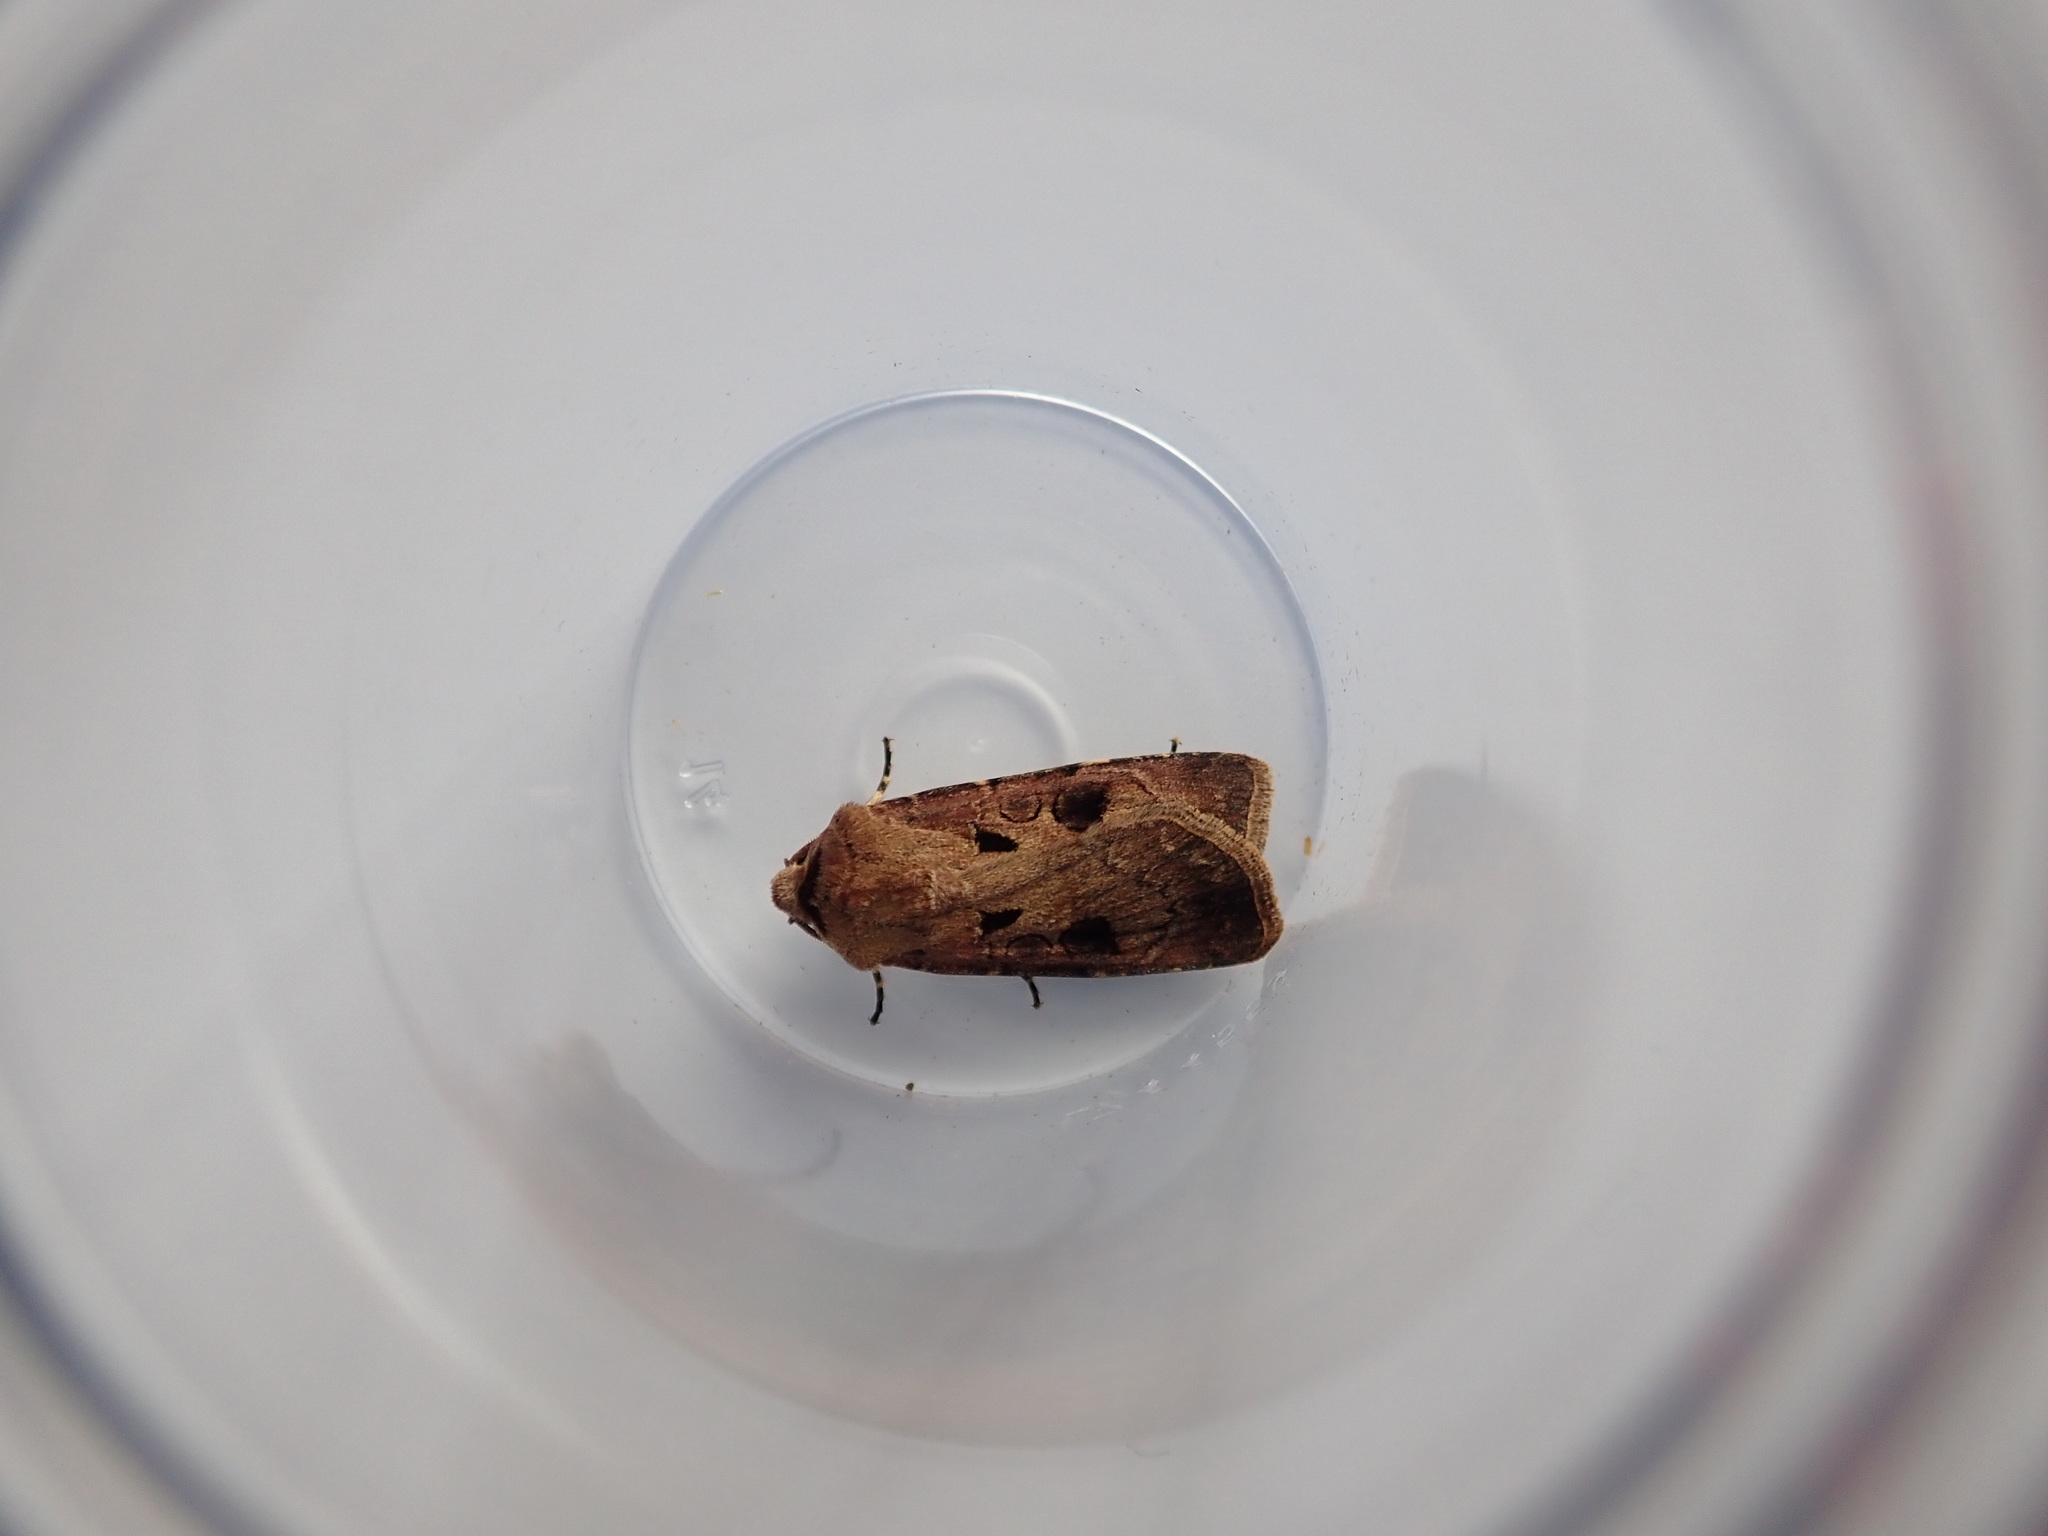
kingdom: Animalia
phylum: Arthropoda
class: Insecta
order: Lepidoptera
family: Noctuidae
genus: Agrotis
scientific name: Agrotis exclamationis
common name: Heart and dart
